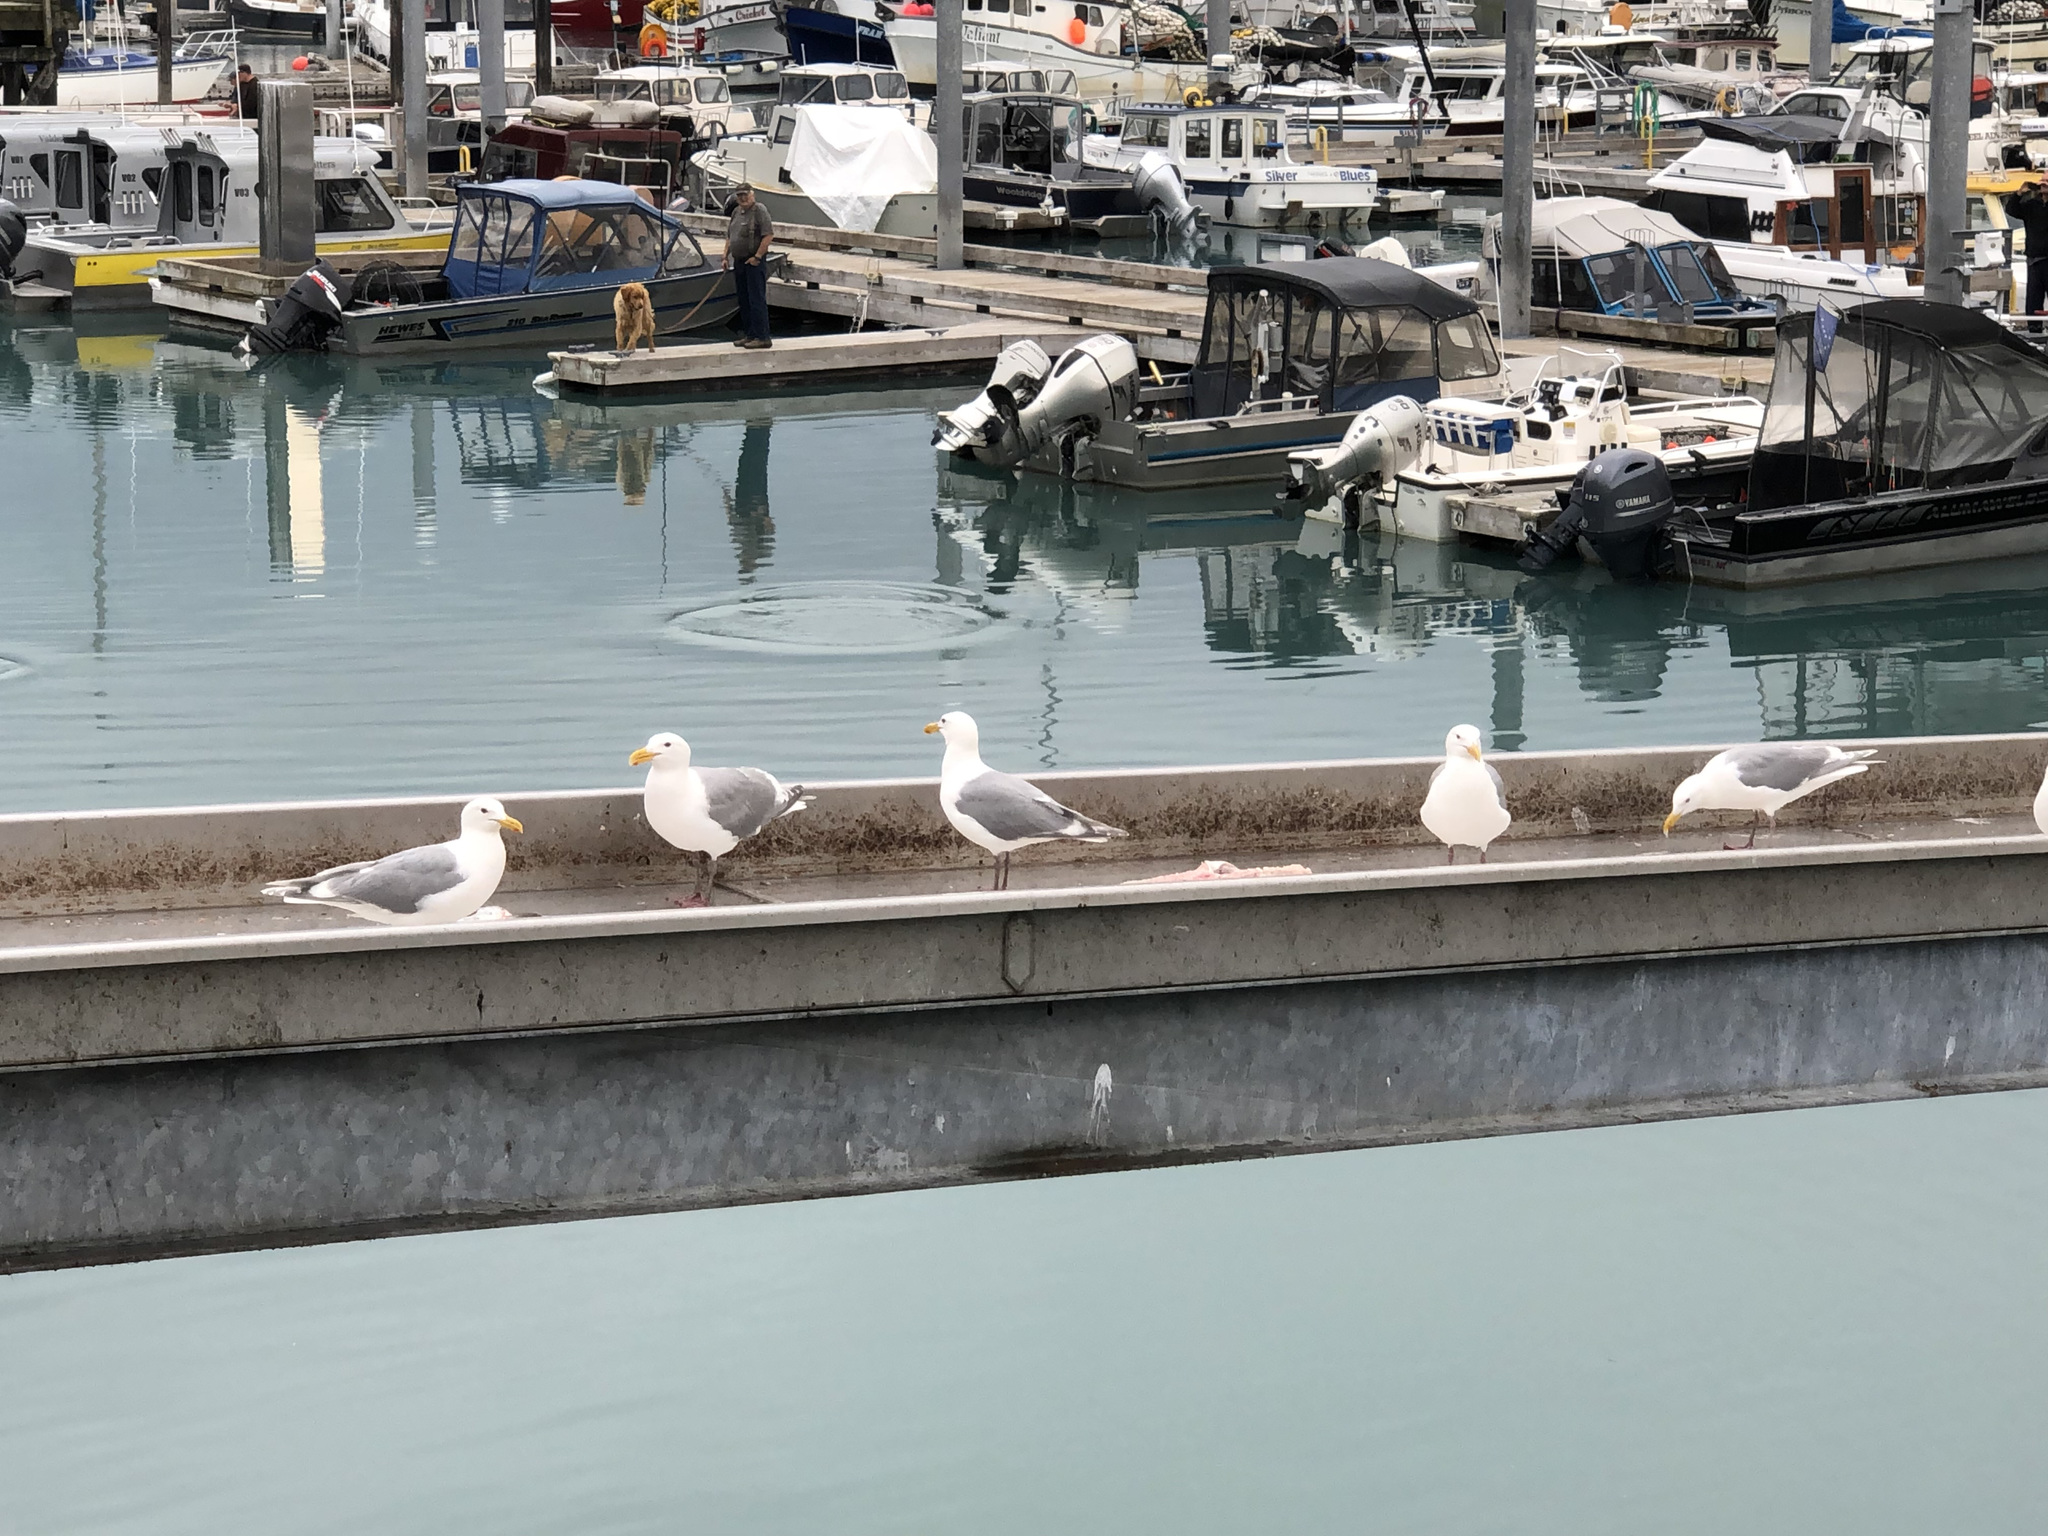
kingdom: Animalia
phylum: Chordata
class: Aves
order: Charadriiformes
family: Laridae
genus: Larus
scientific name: Larus glaucescens
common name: Glaucous-winged gull
